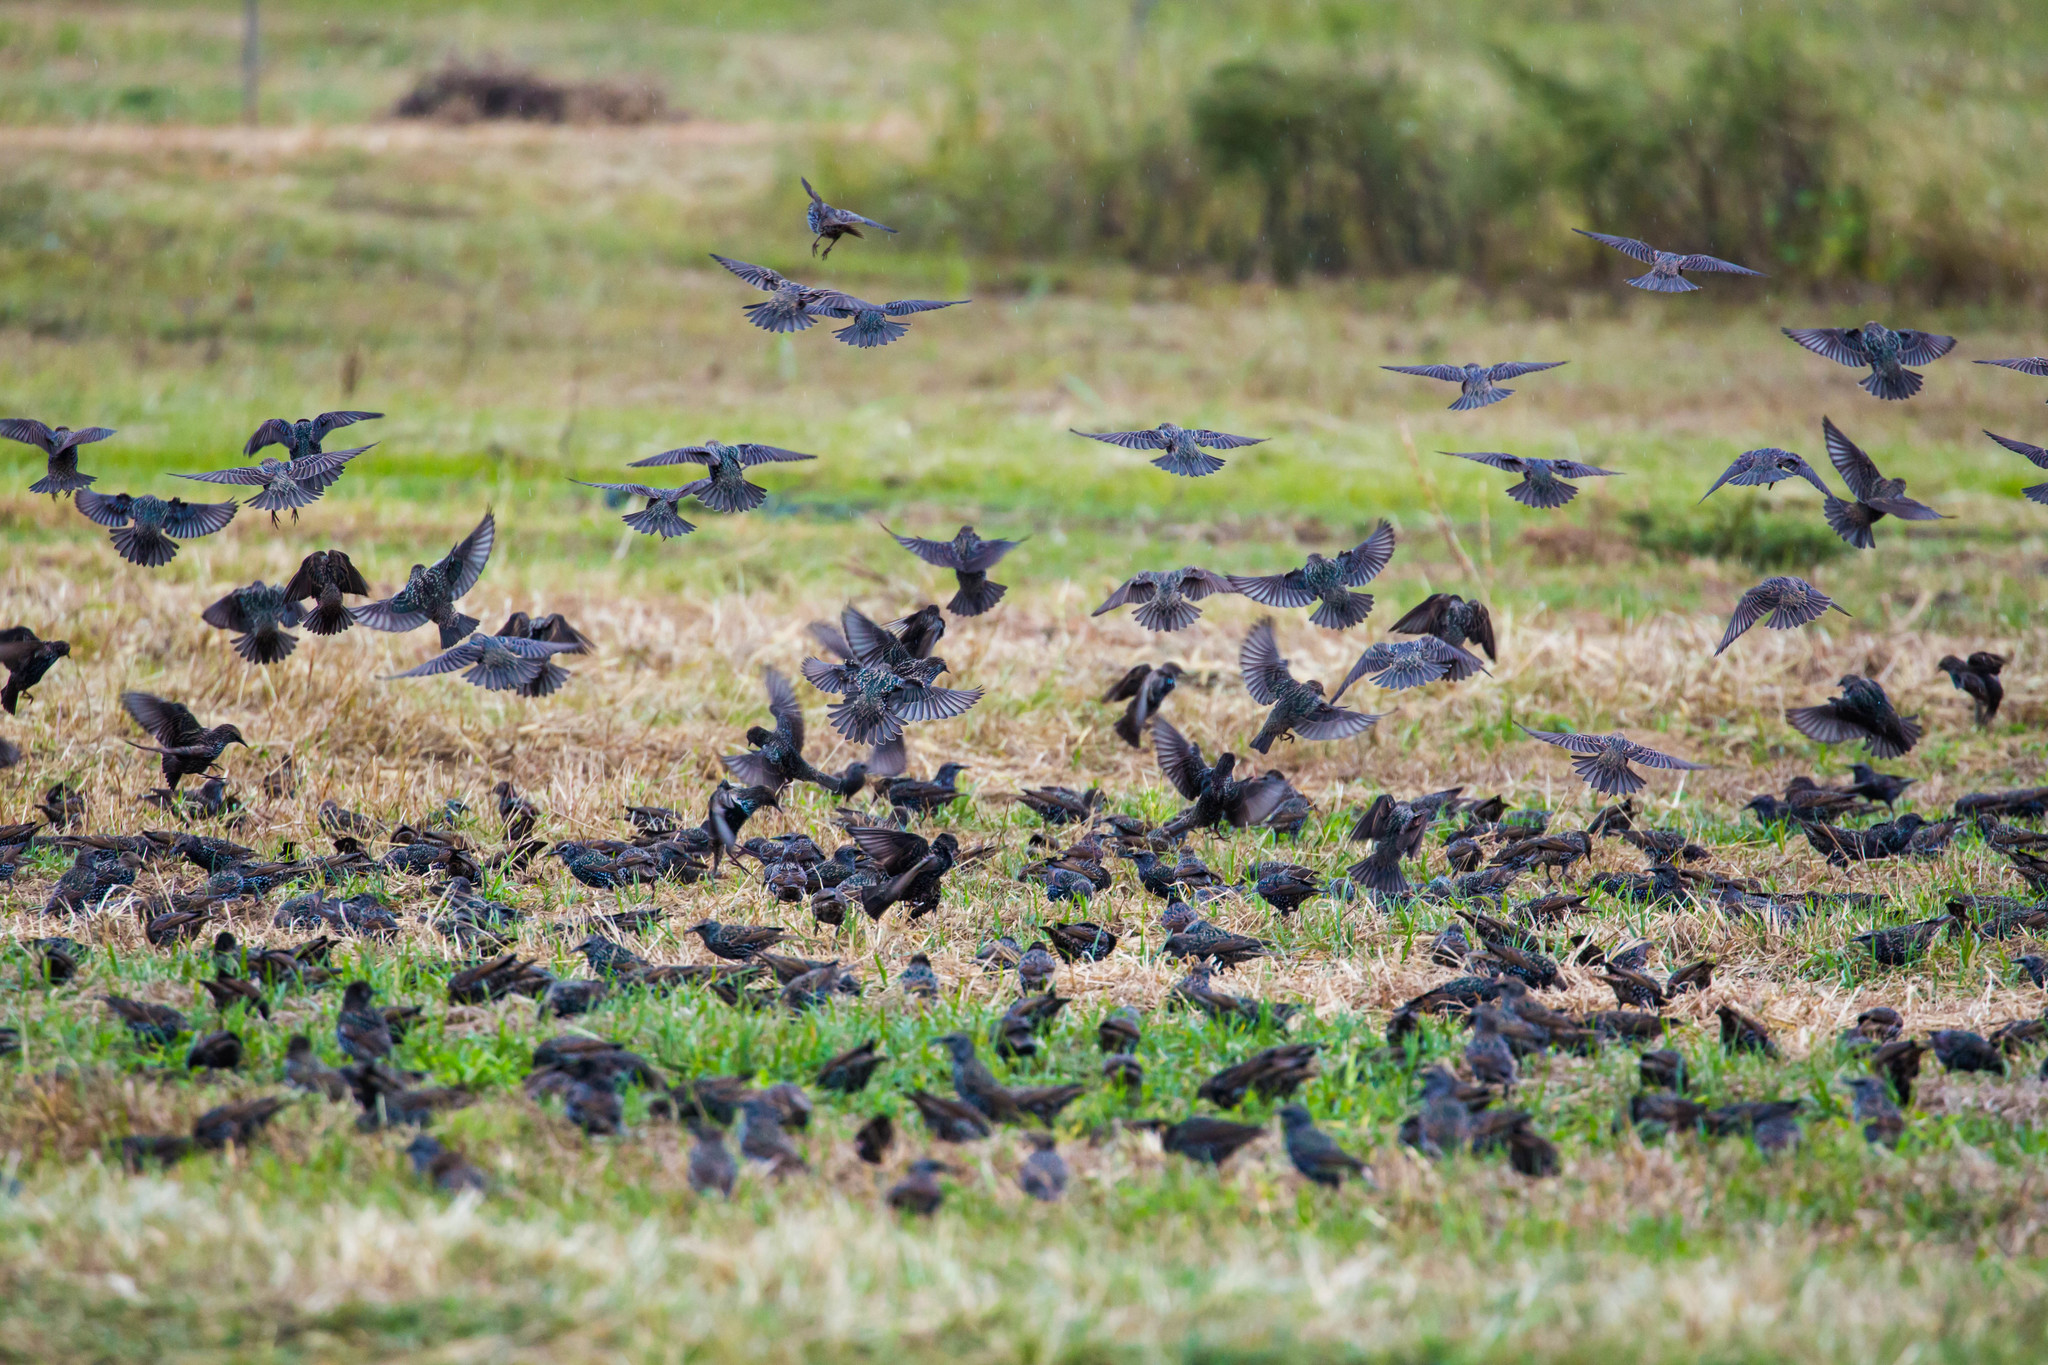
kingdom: Animalia
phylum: Chordata
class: Aves
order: Passeriformes
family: Sturnidae
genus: Sturnus
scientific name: Sturnus vulgaris
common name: Common starling
